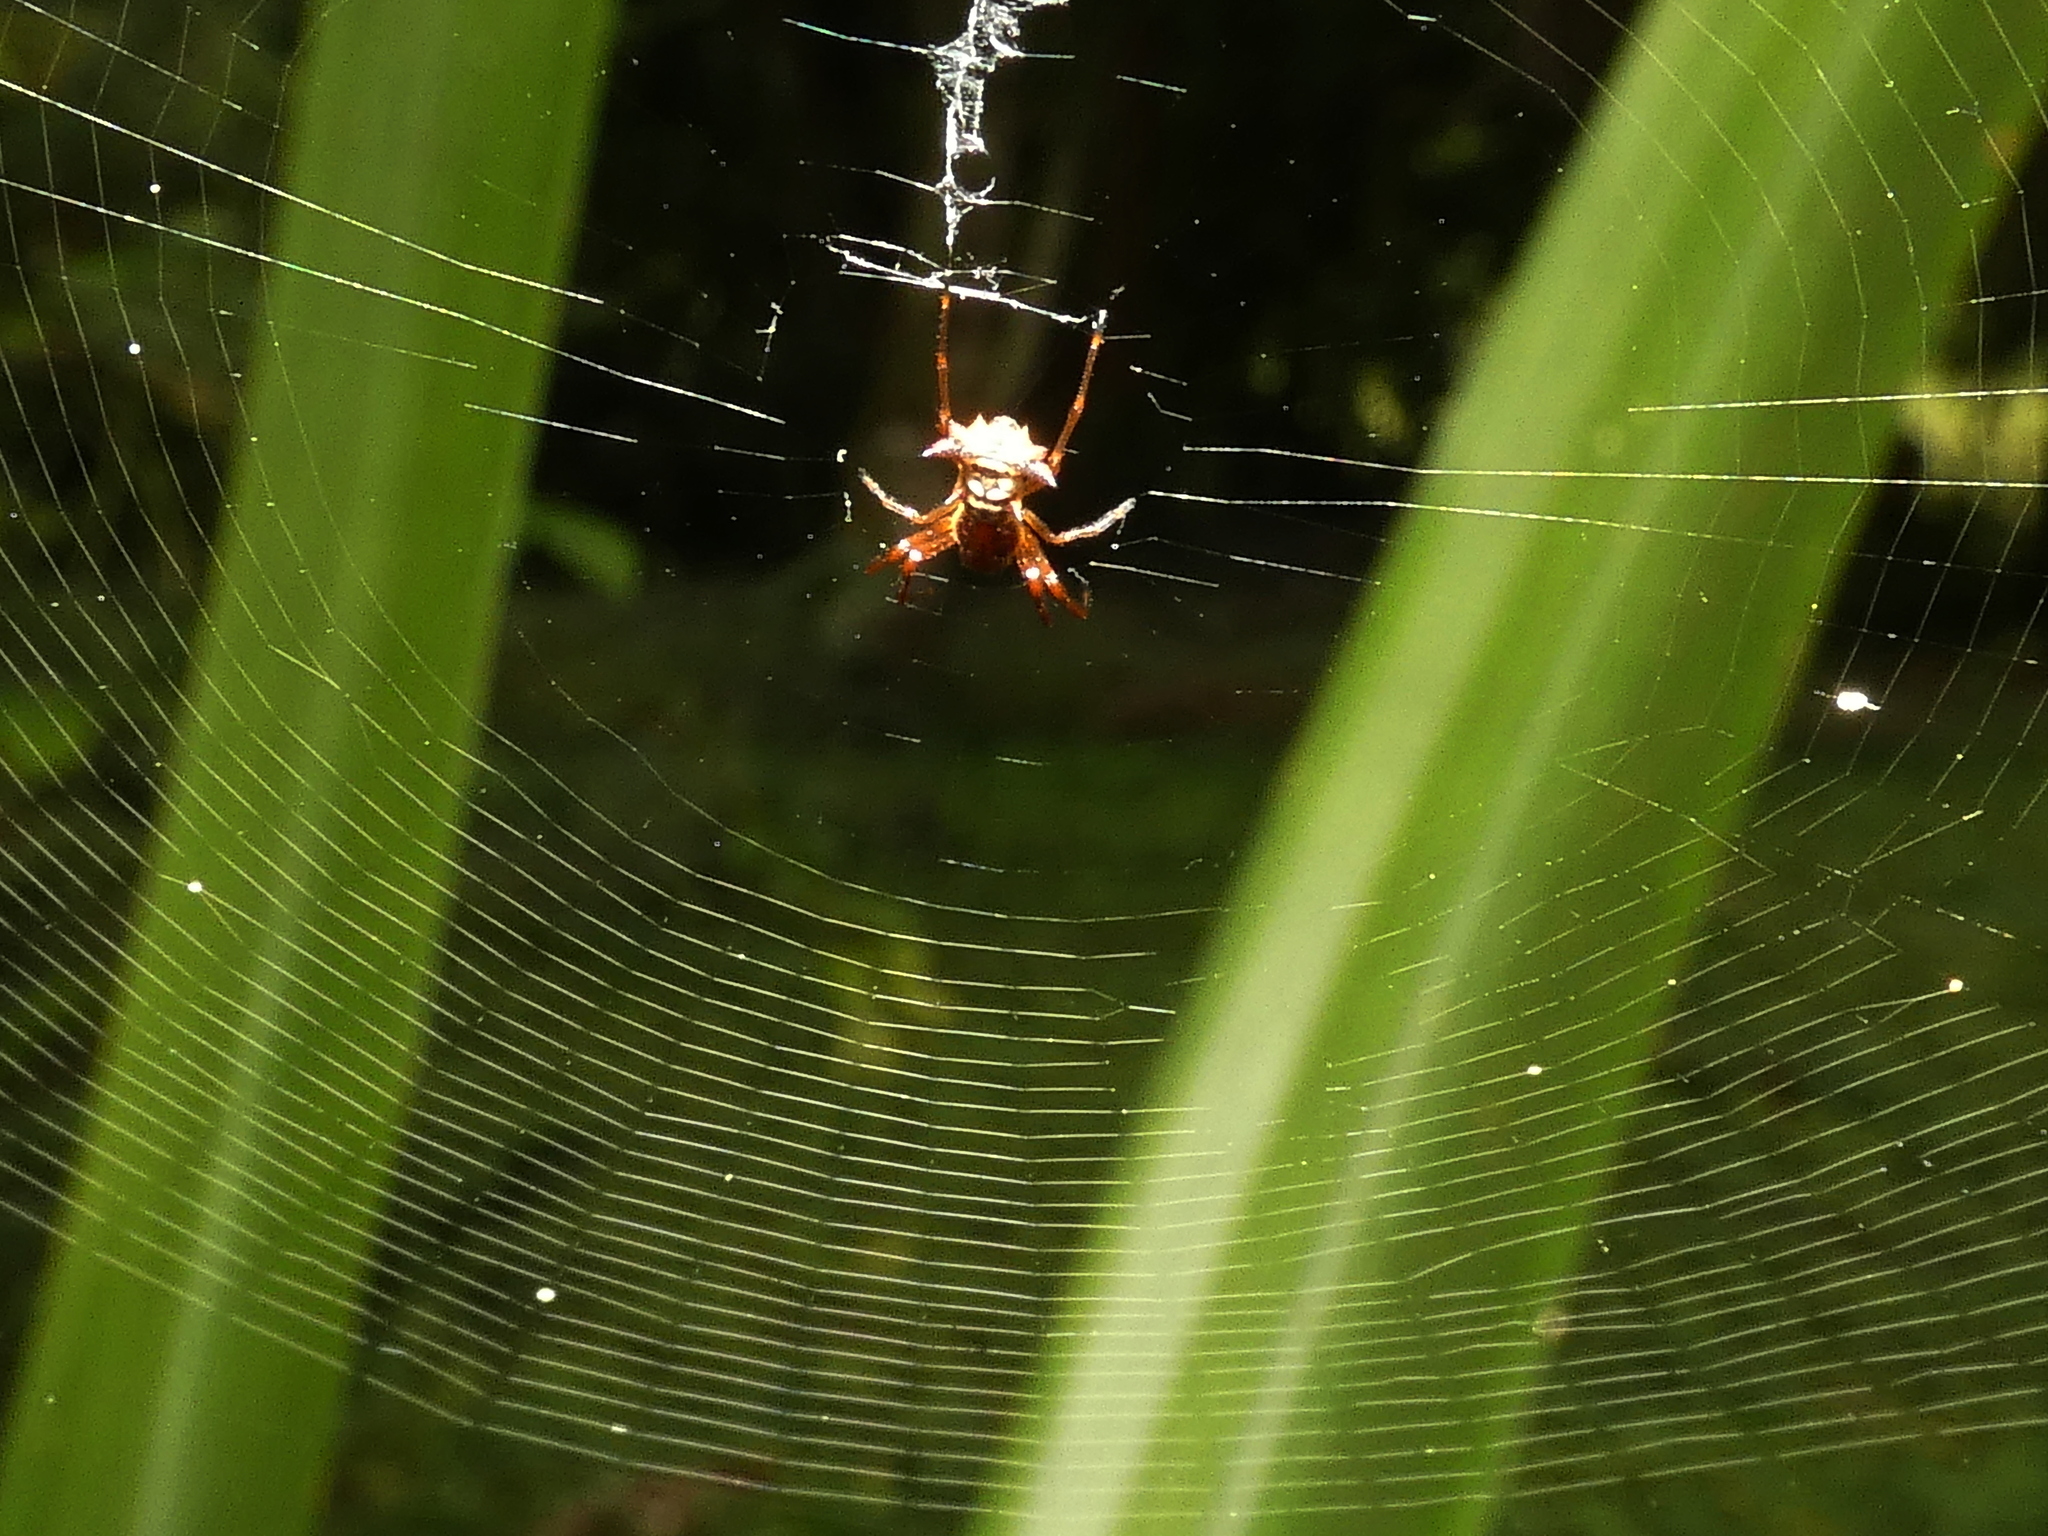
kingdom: Animalia
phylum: Arthropoda
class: Arachnida
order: Araneae
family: Araneidae
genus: Micrathena
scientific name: Micrathena fissispina
